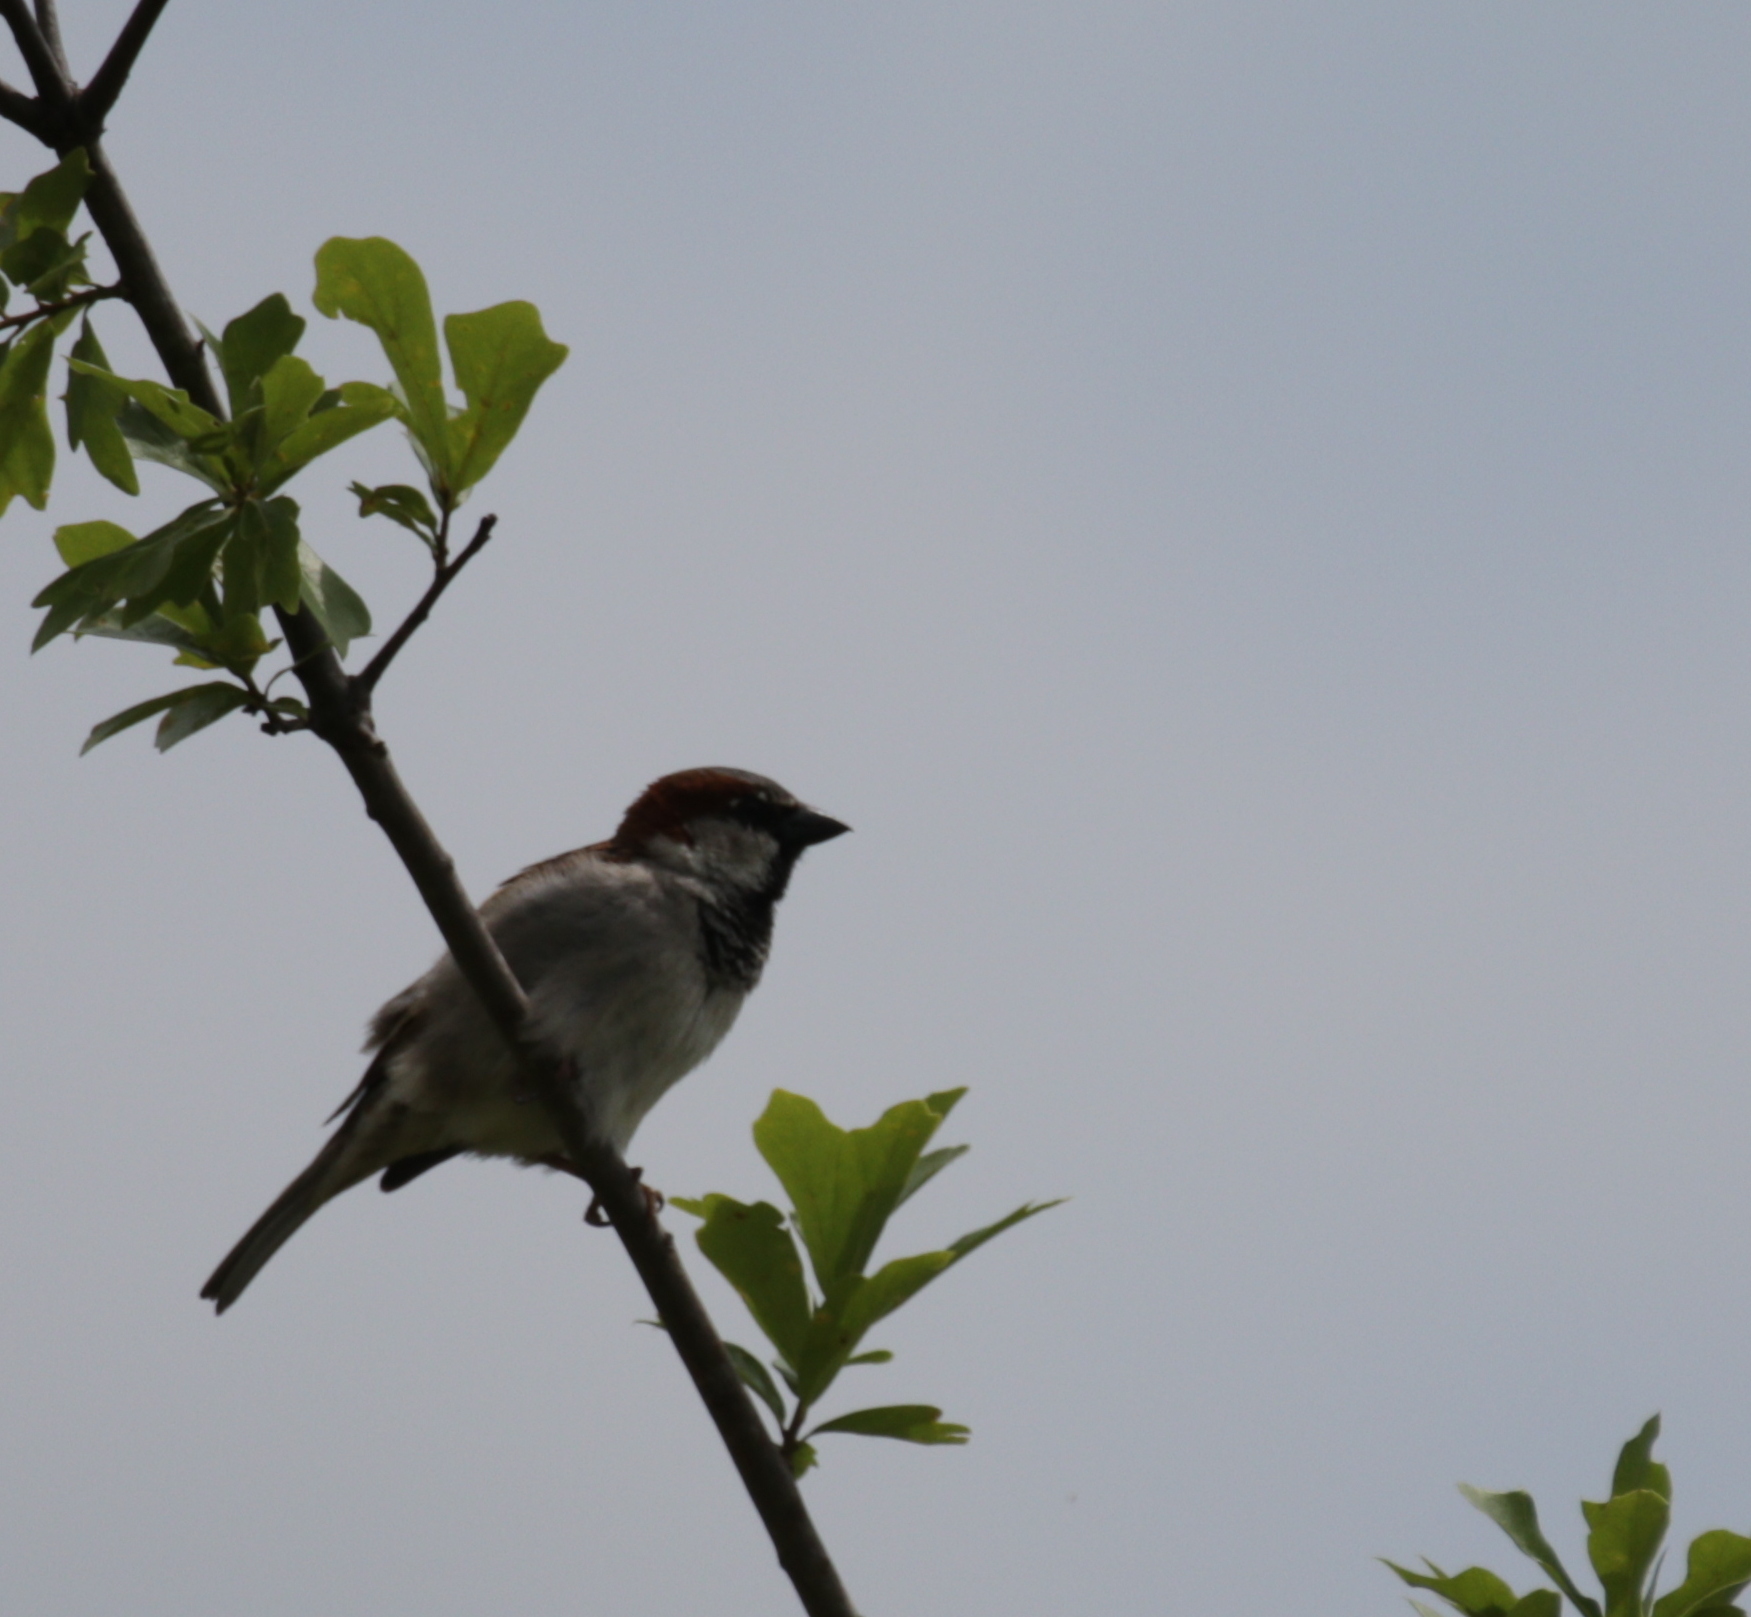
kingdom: Animalia
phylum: Chordata
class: Aves
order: Passeriformes
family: Passeridae
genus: Passer
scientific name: Passer domesticus
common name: House sparrow
